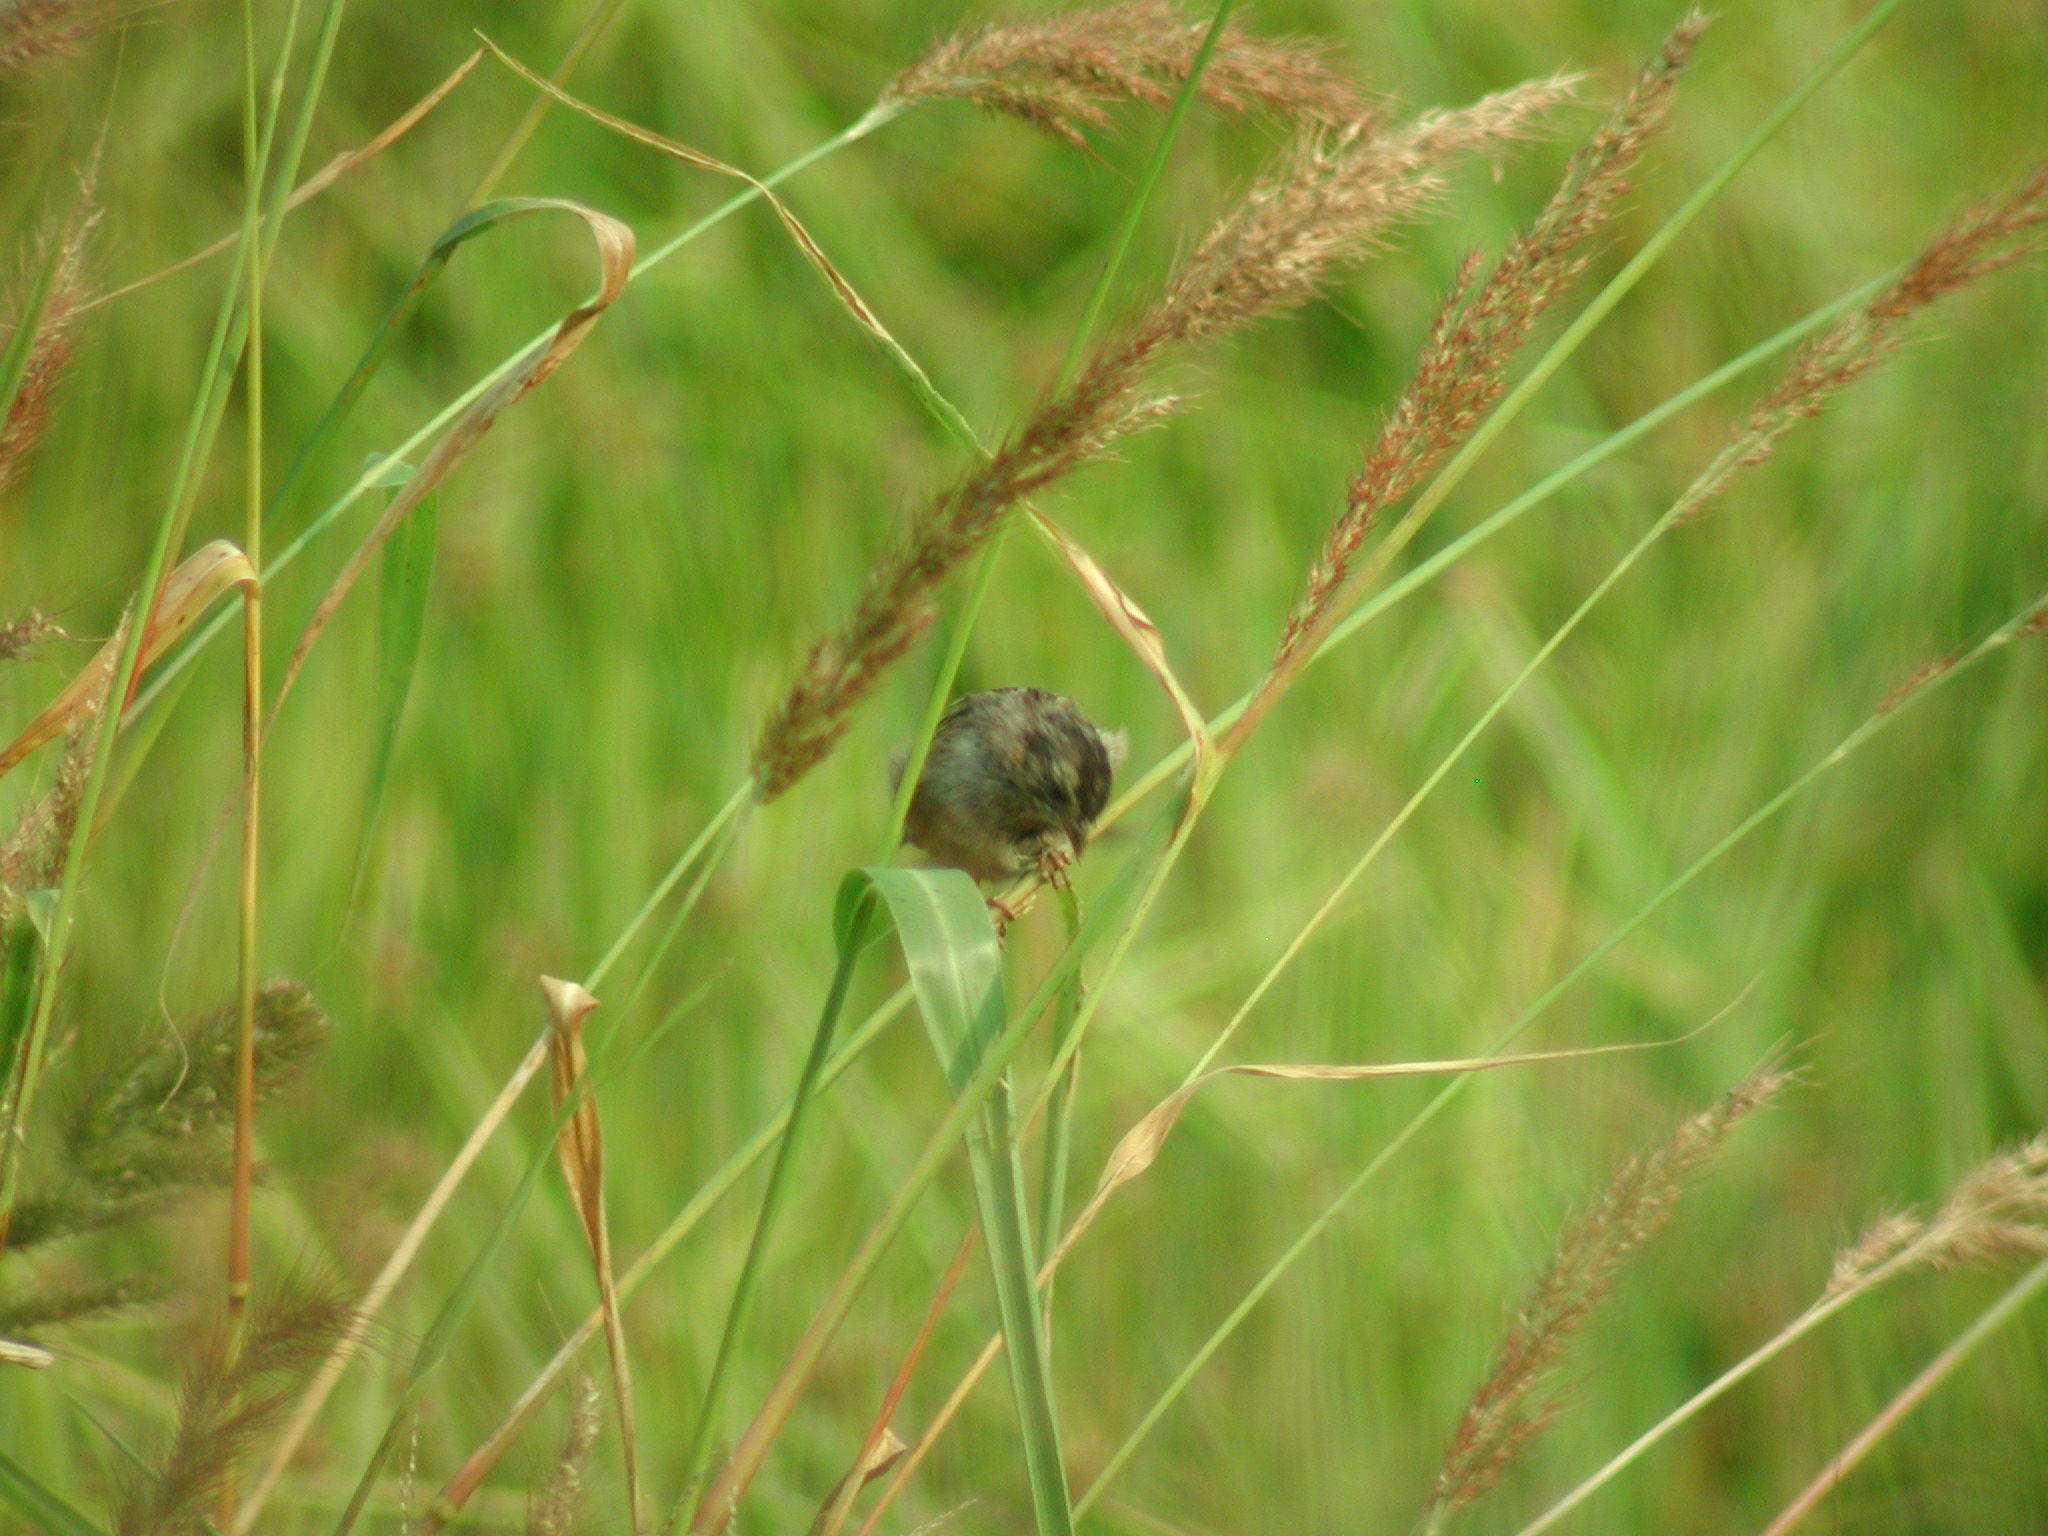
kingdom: Animalia
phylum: Chordata
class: Aves
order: Passeriformes
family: Passerellidae
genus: Melospiza
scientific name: Melospiza georgiana
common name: Swamp sparrow
